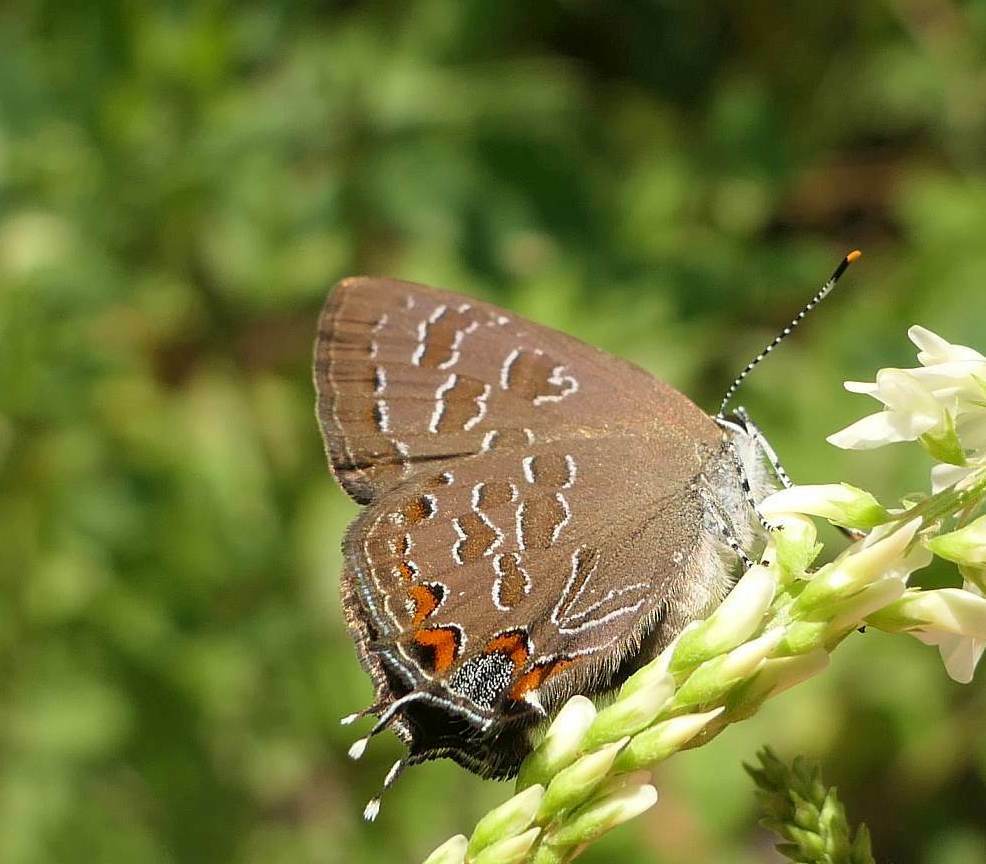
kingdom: Animalia
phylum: Arthropoda
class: Insecta
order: Lepidoptera
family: Lycaenidae
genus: Satyrium
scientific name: Satyrium liparops
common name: Striped hairstreak
